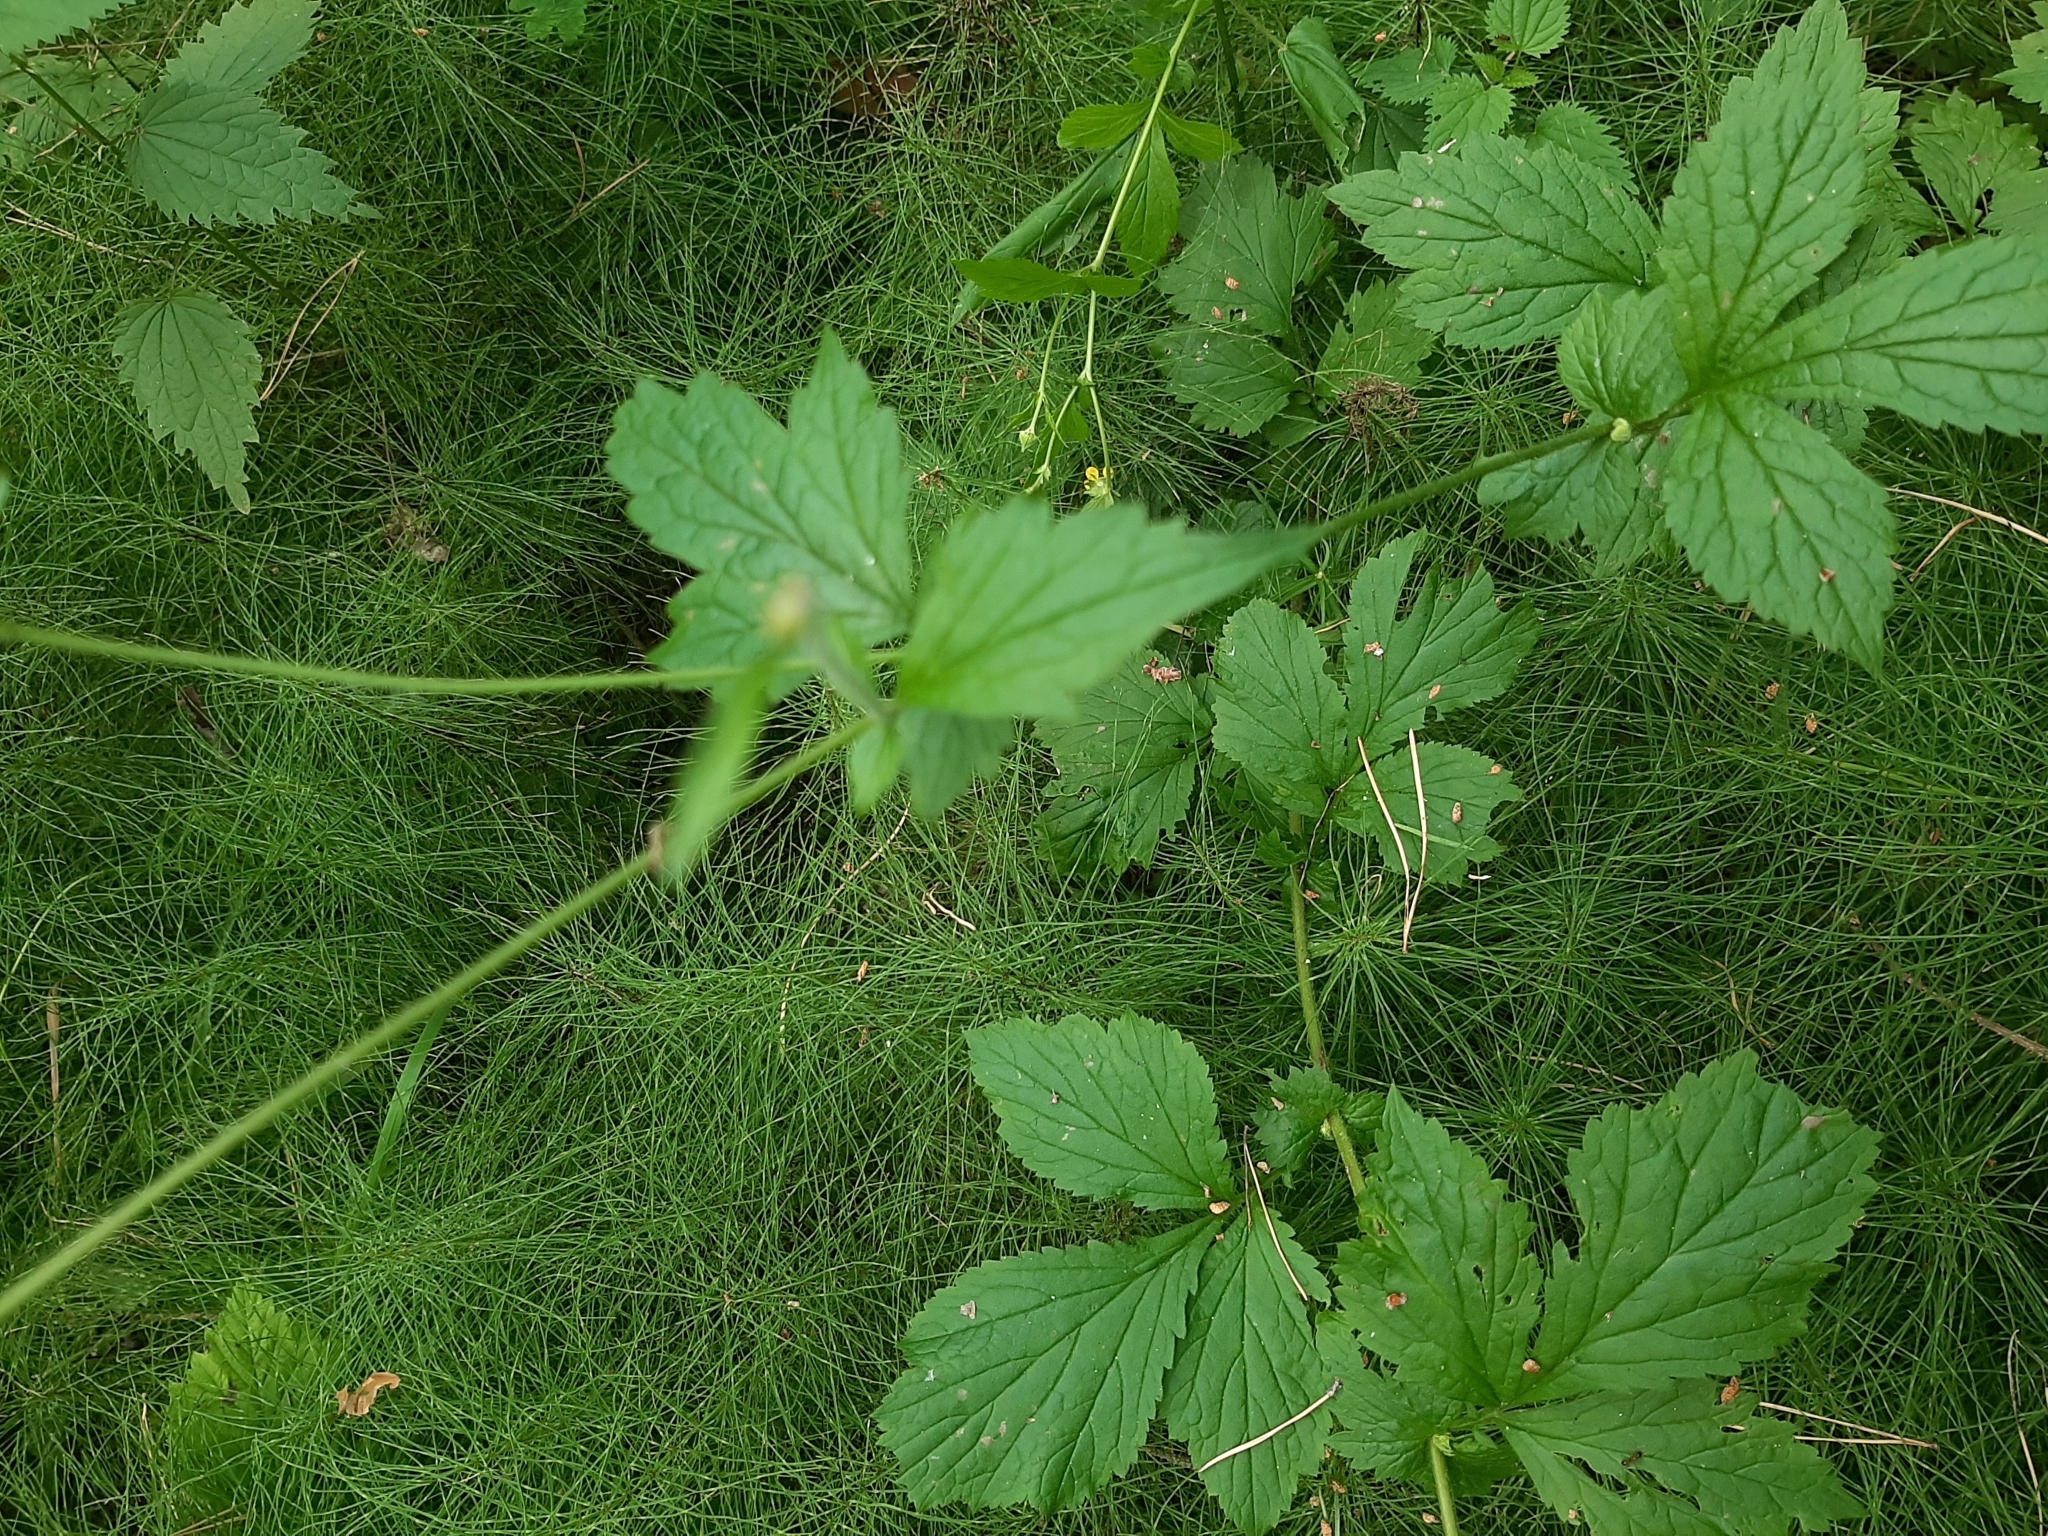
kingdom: Plantae
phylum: Tracheophyta
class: Magnoliopsida
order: Rosales
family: Rosaceae
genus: Geum
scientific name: Geum aleppicum
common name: Yellow avens
